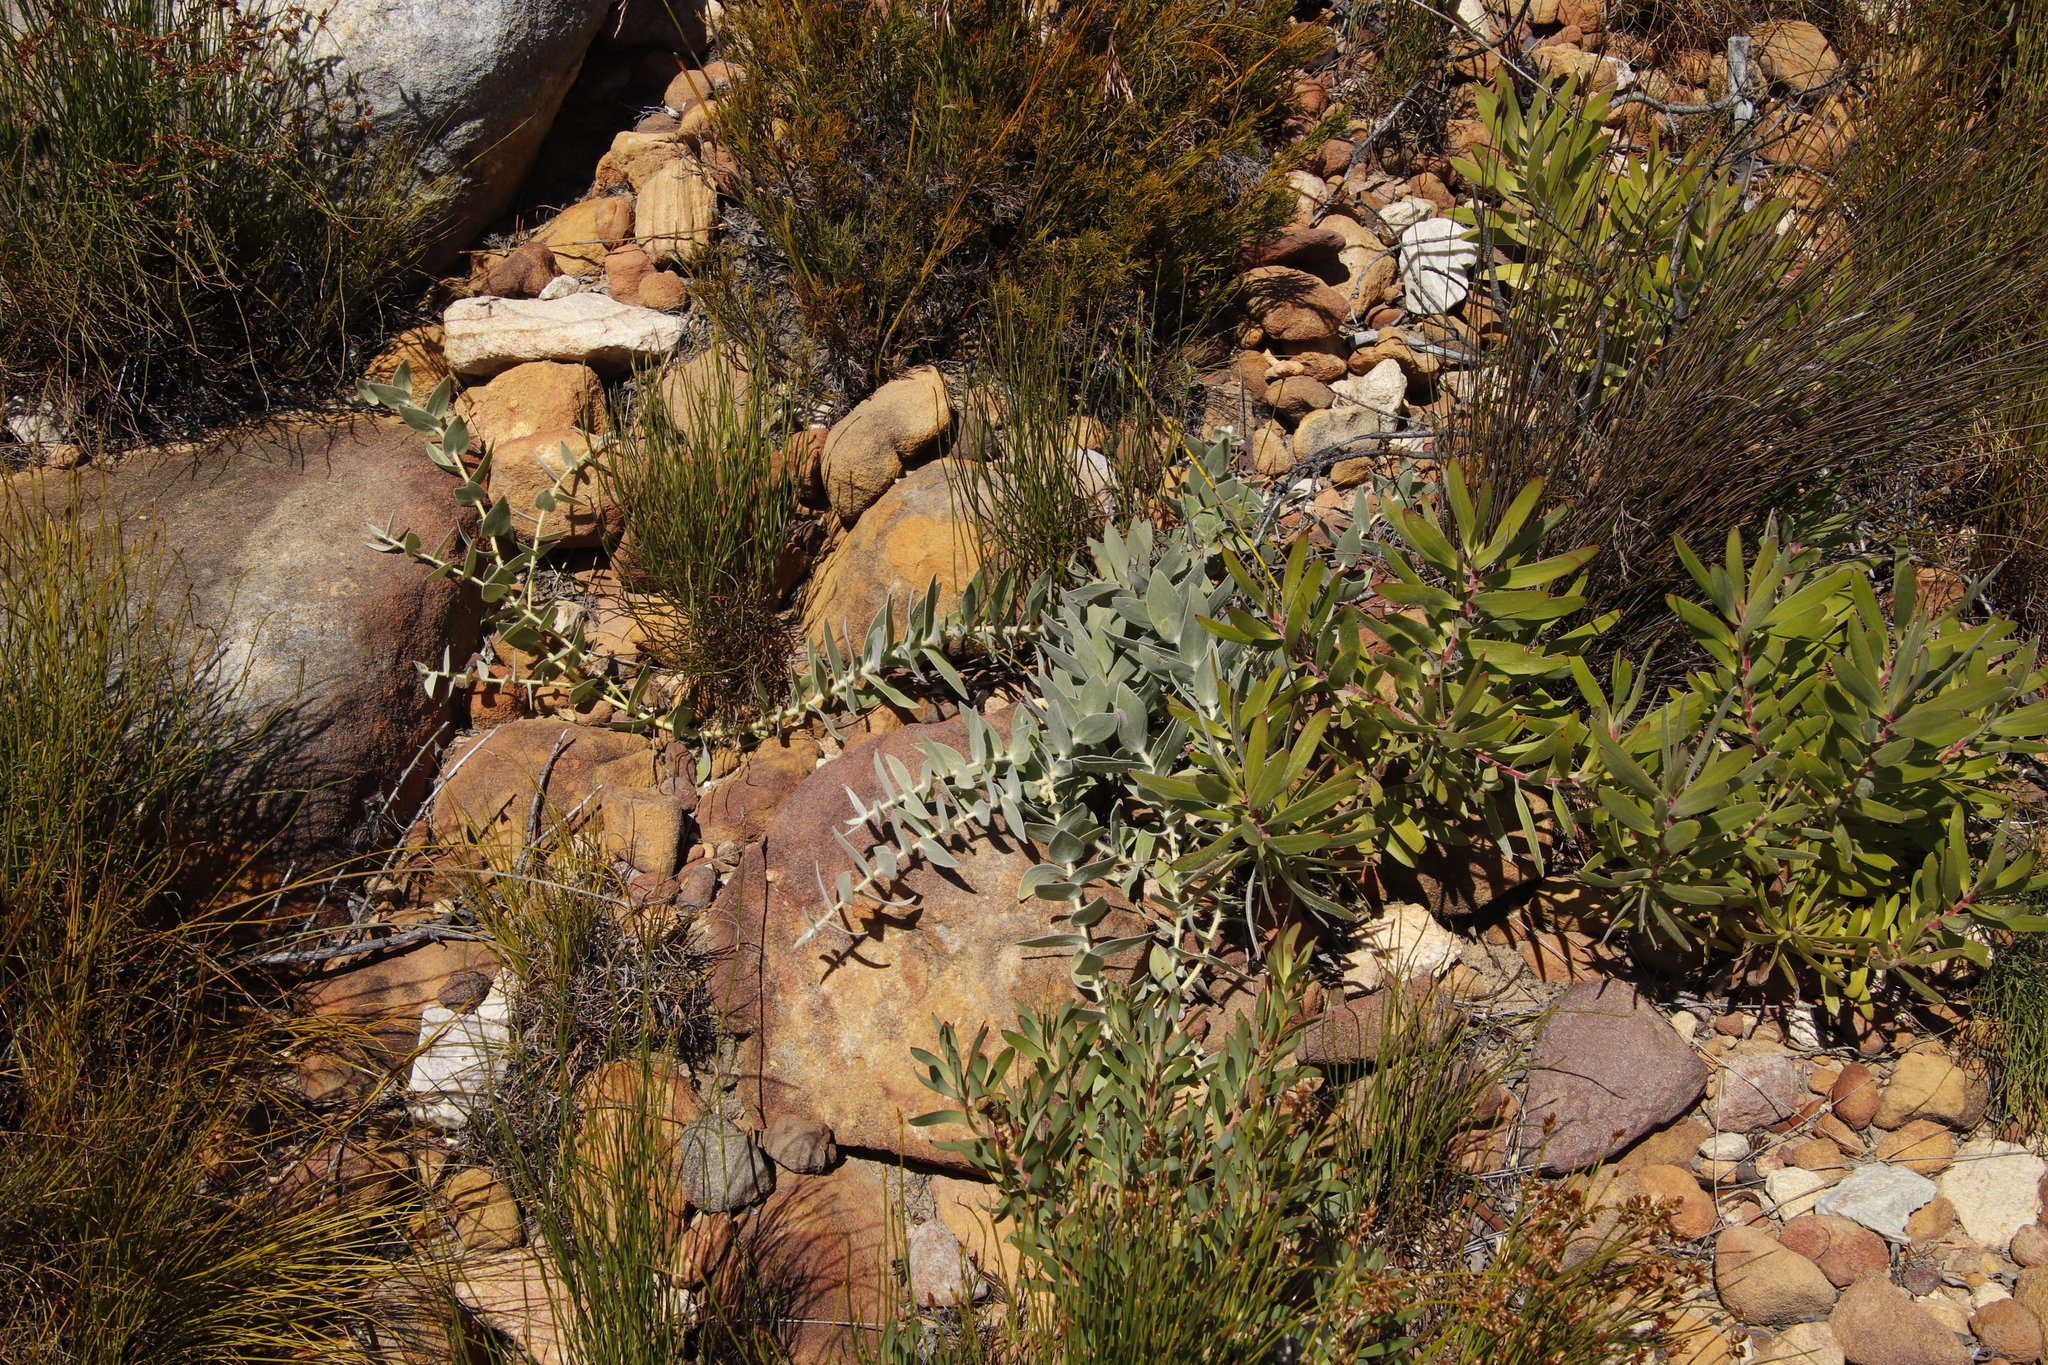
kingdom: Plantae
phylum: Tracheophyta
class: Magnoliopsida
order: Proteales
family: Proteaceae
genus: Leucospermum
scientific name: Leucospermum cordatum
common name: Heart-leaf pincushion
